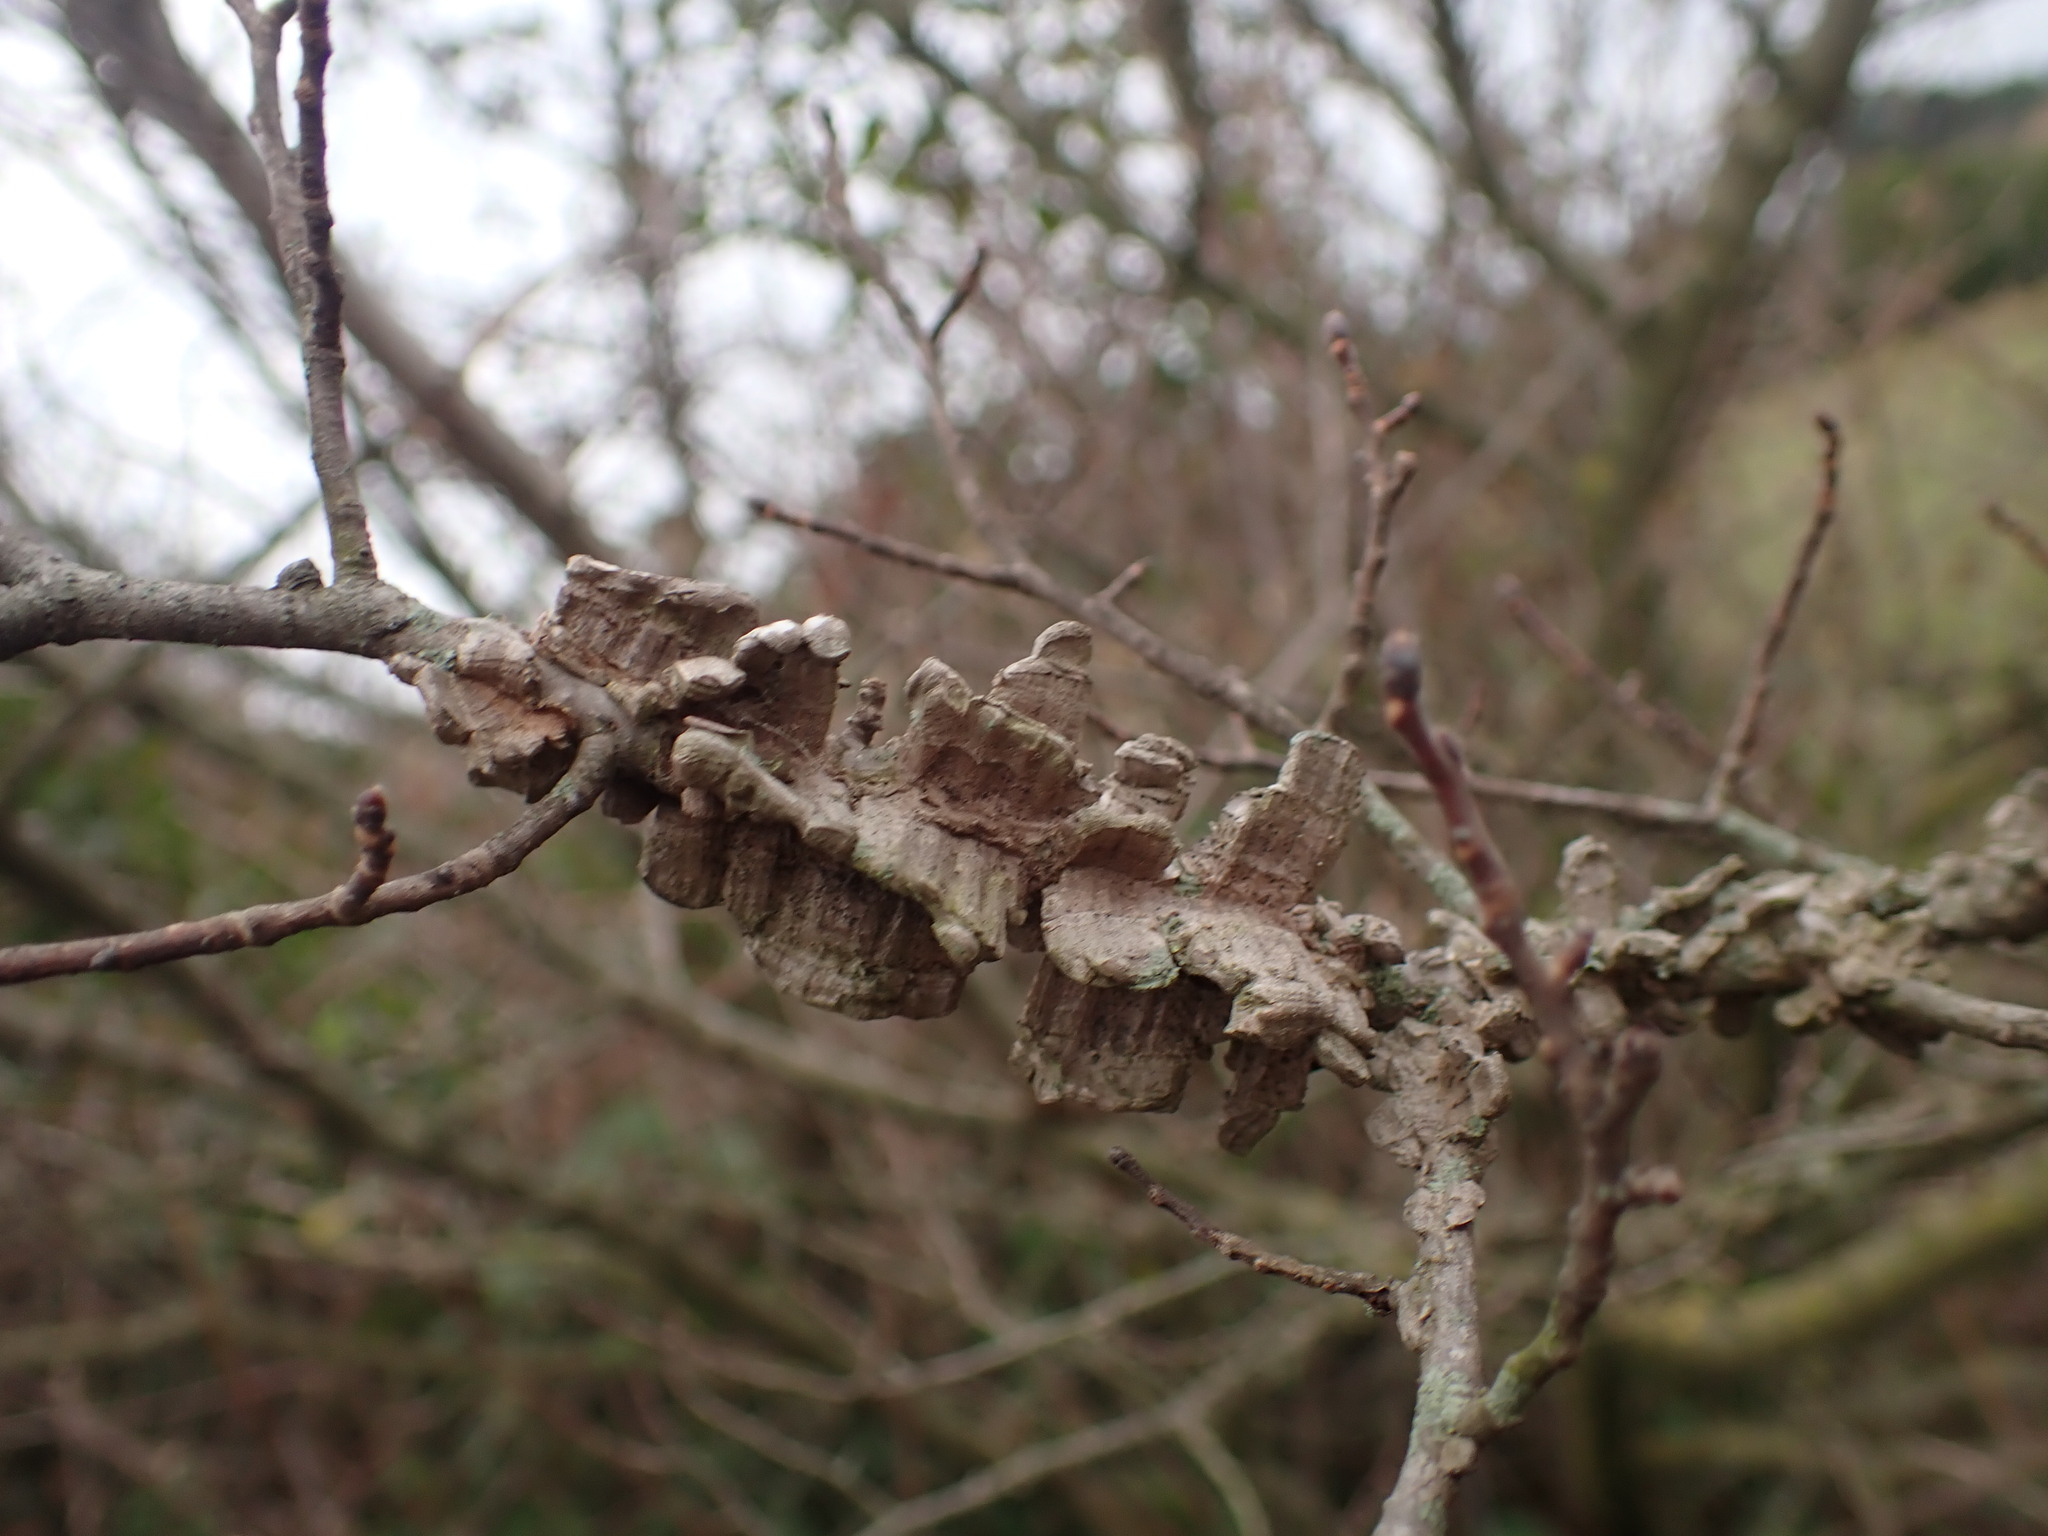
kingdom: Plantae
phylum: Tracheophyta
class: Magnoliopsida
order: Rosales
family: Ulmaceae
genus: Ulmus
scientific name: Ulmus minor
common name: Small-leaved elm
